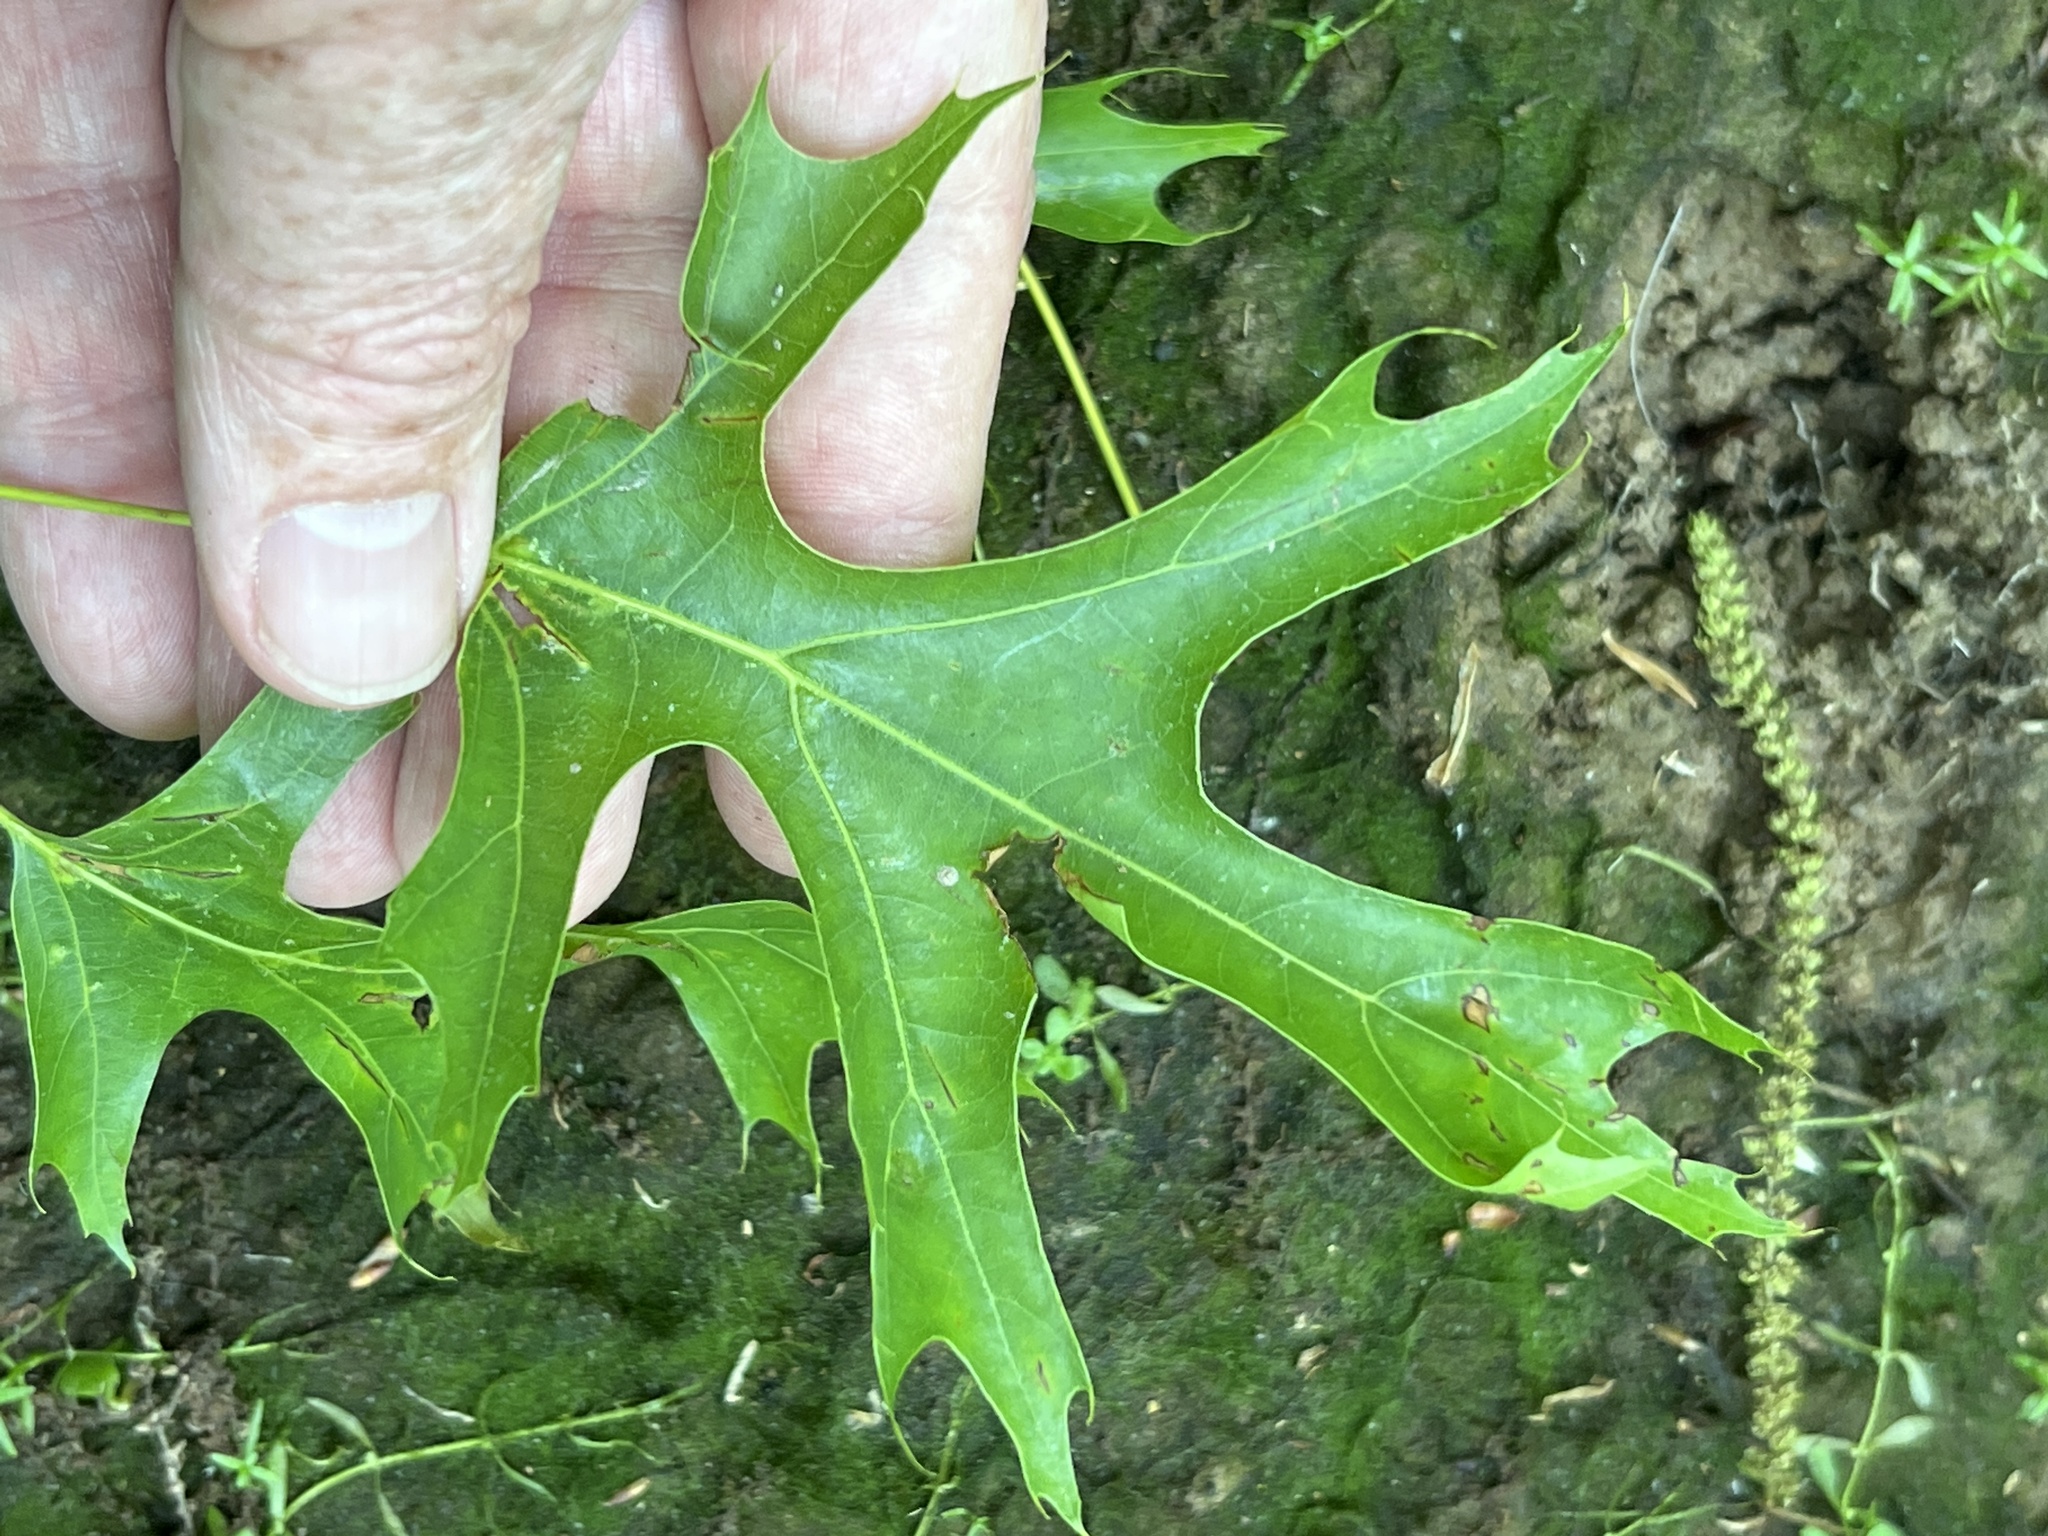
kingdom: Plantae
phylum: Tracheophyta
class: Magnoliopsida
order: Fagales
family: Fagaceae
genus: Quercus
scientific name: Quercus palustris
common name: Pin oak
